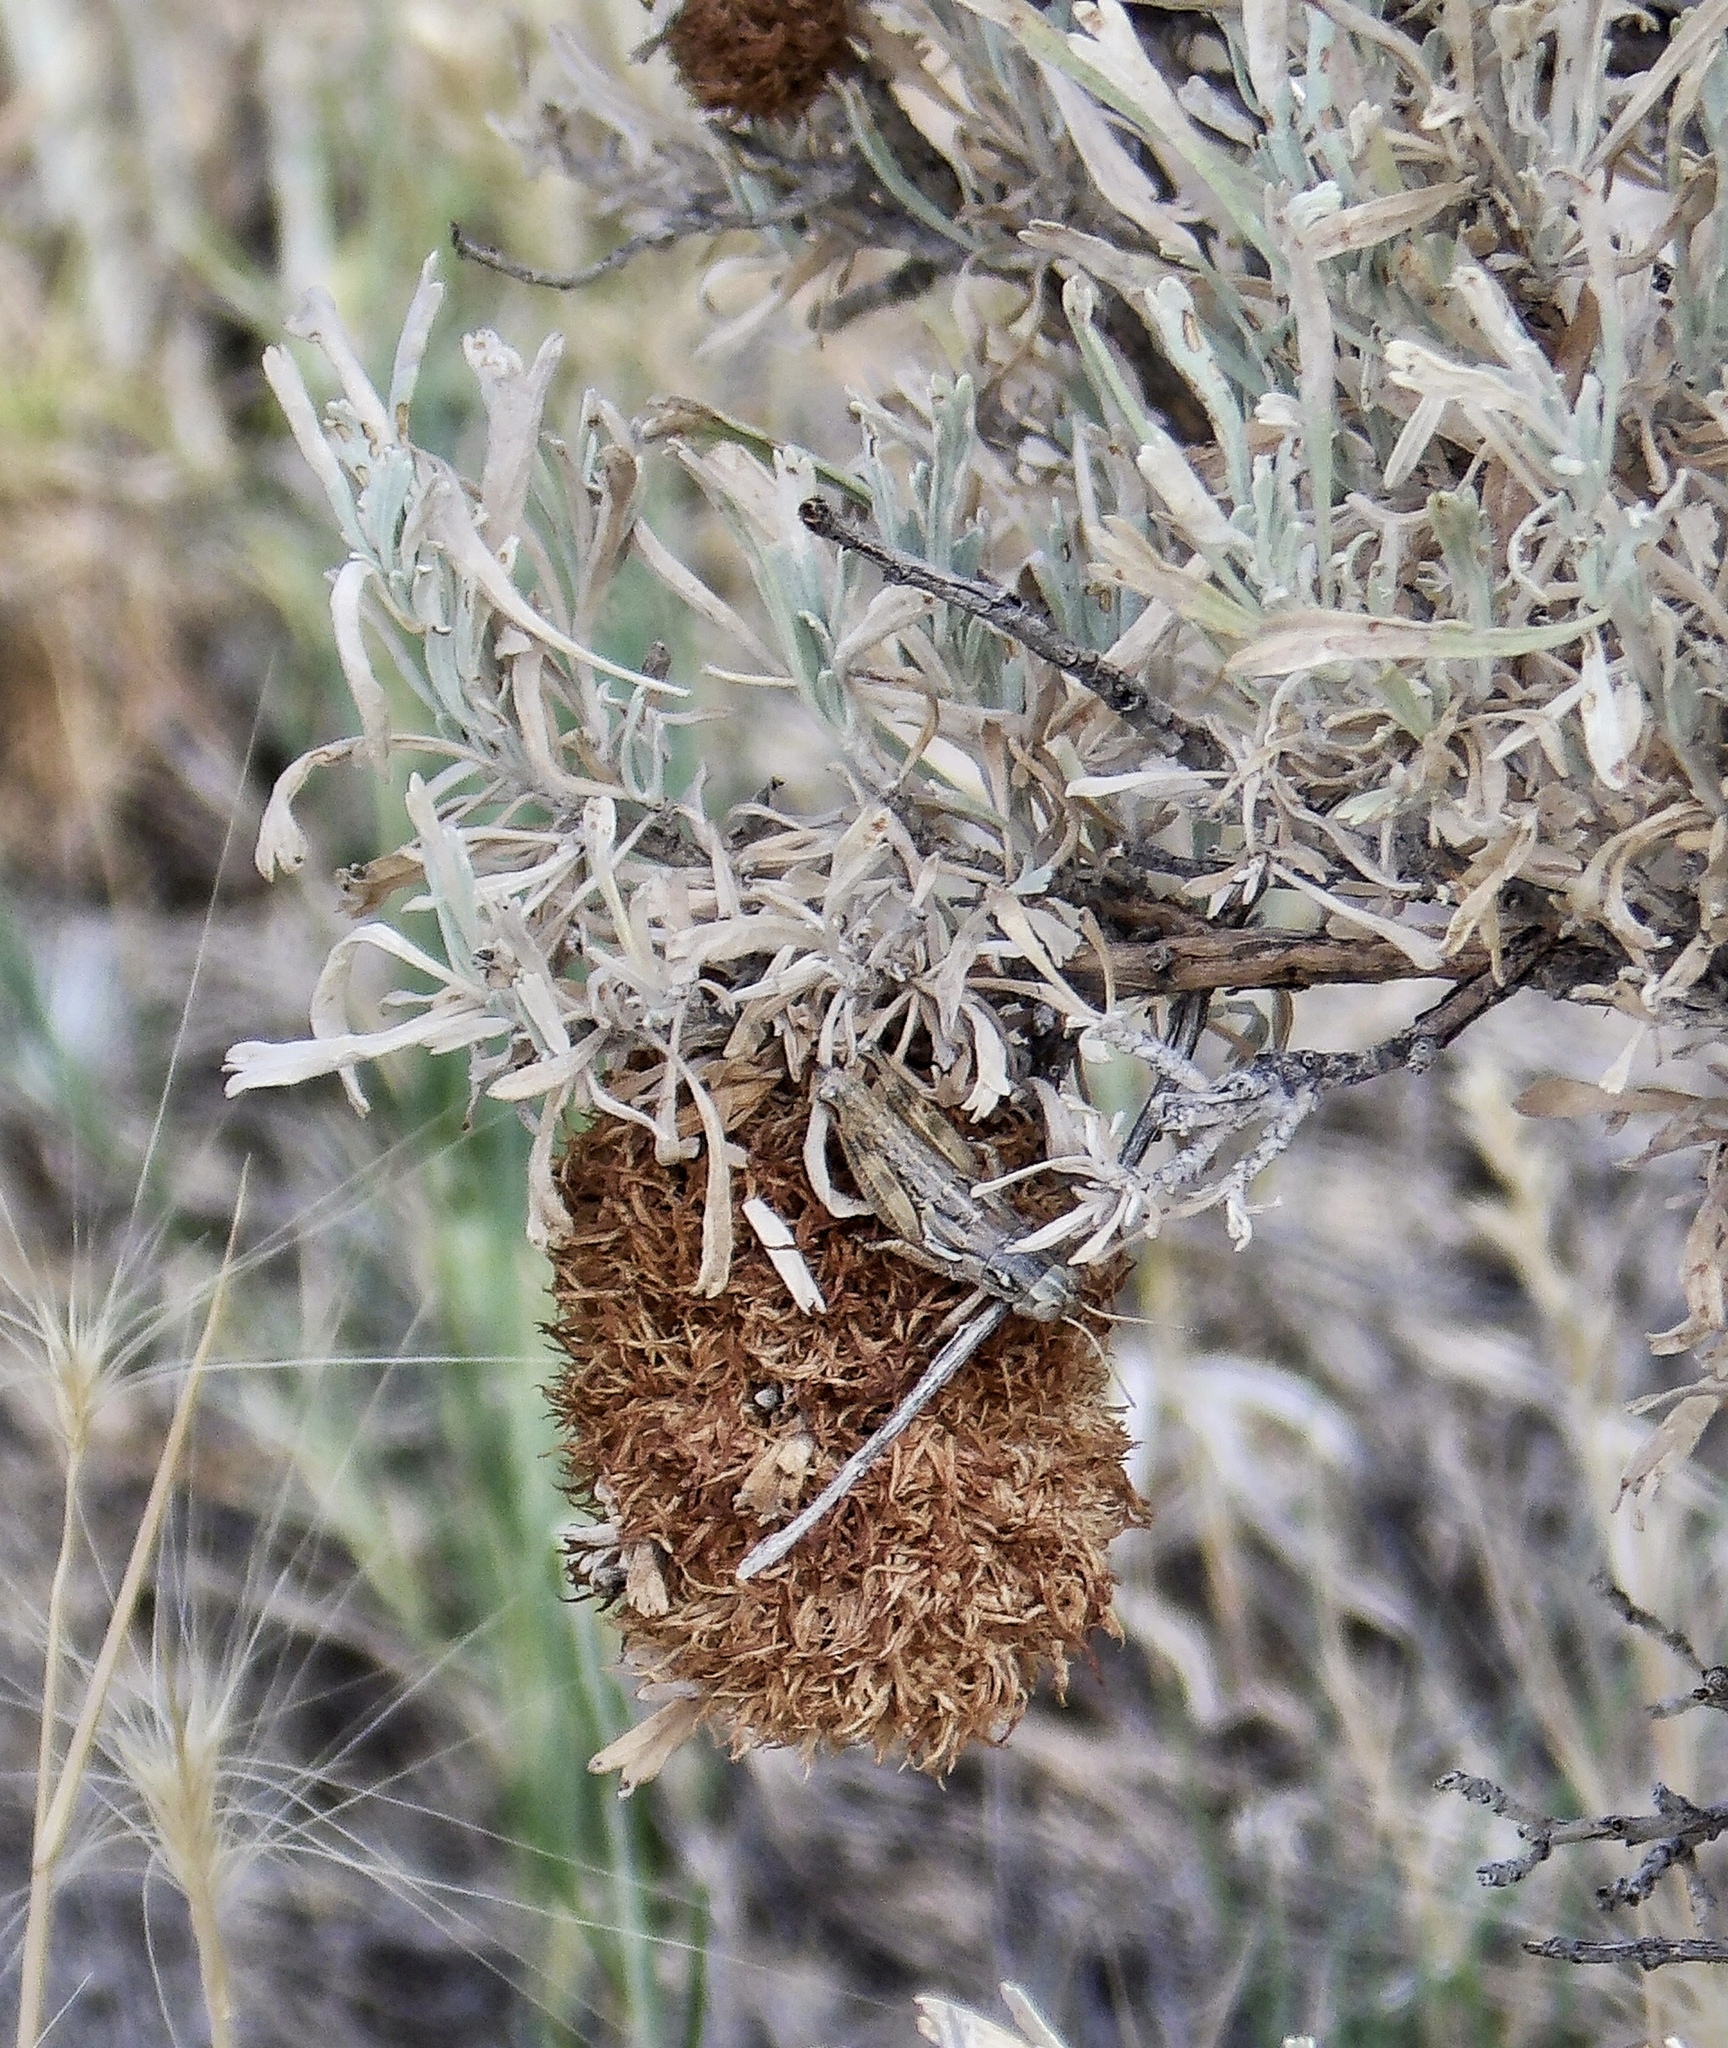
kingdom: Animalia
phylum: Arthropoda
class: Insecta
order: Diptera
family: Cecidomyiidae
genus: Rhopalomyia
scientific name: Rhopalomyia medusa
